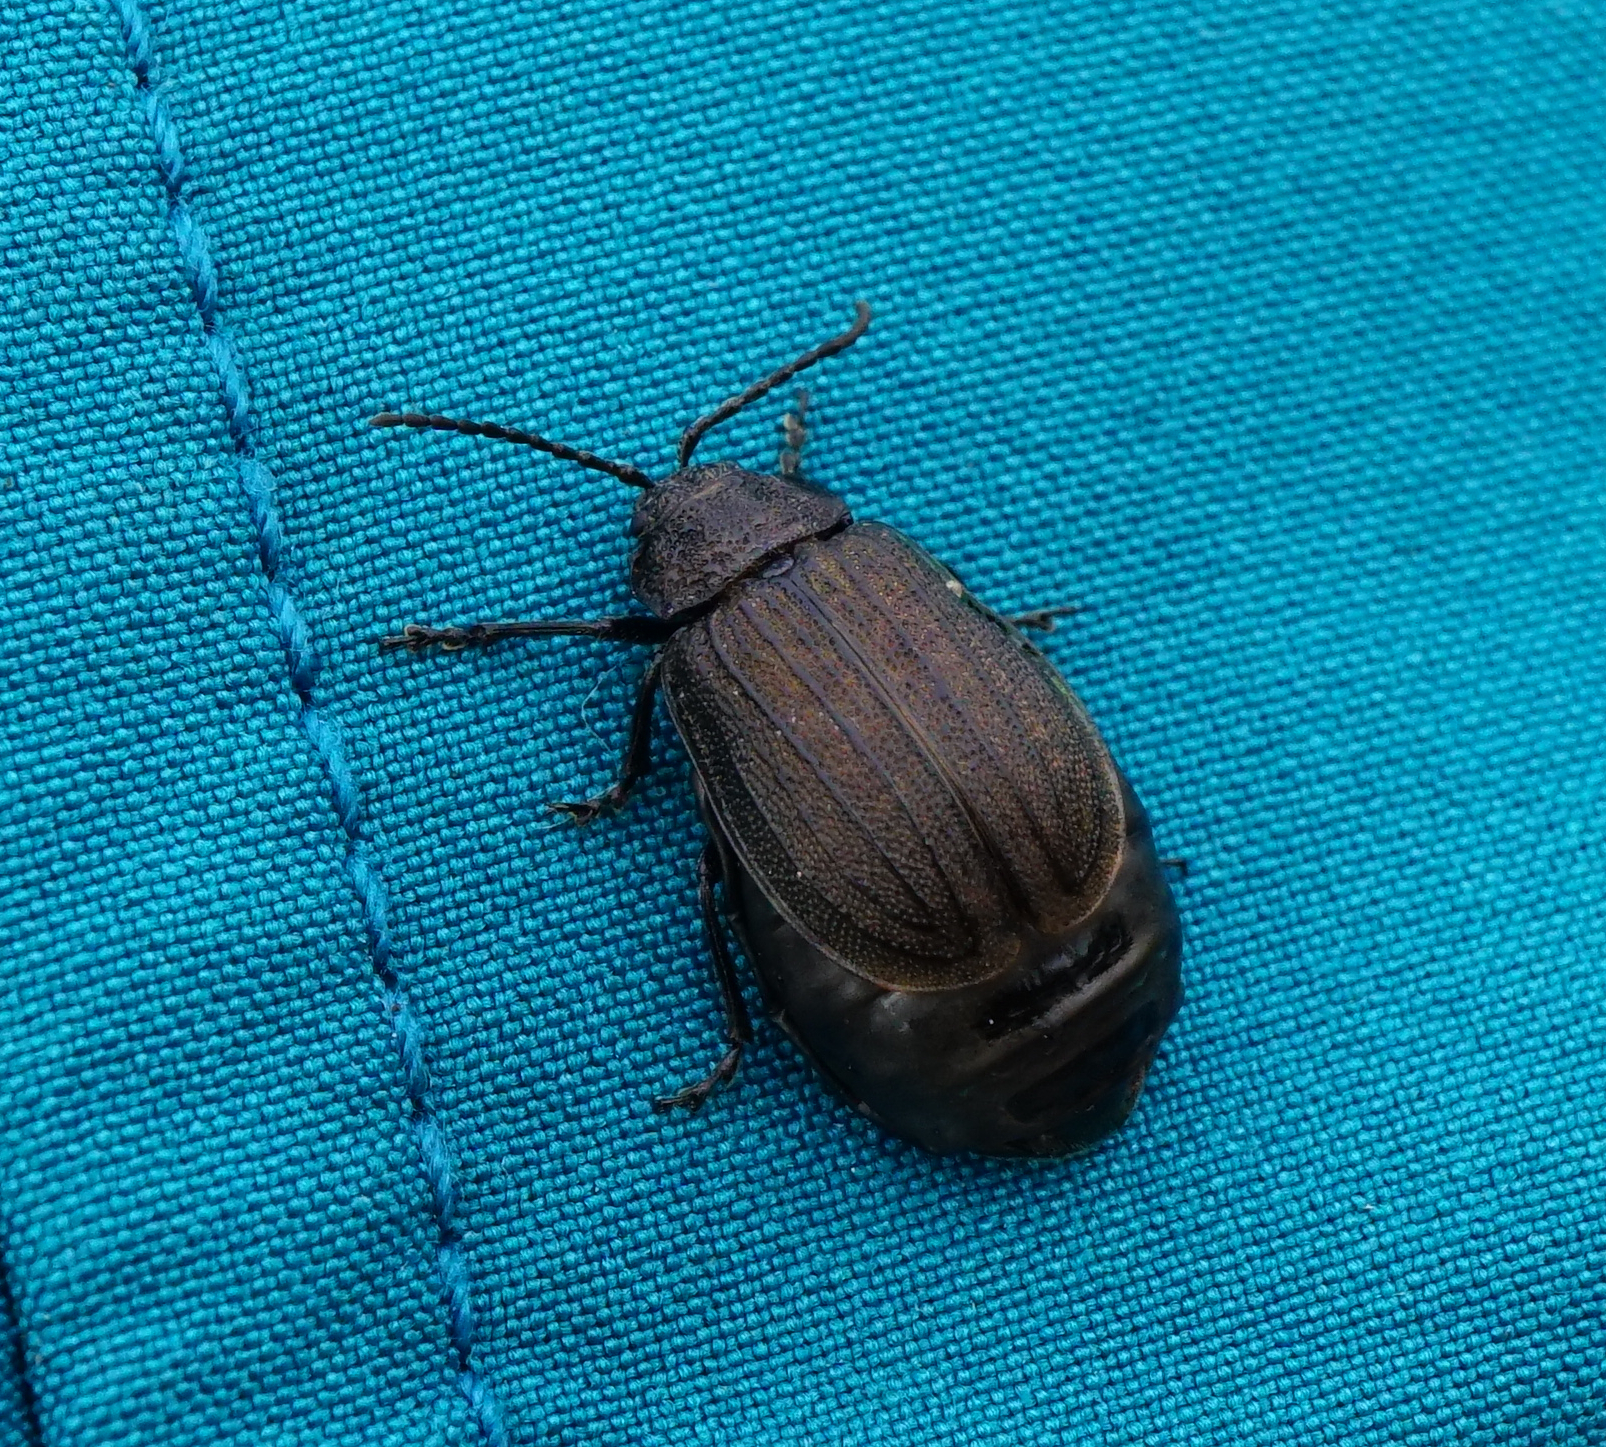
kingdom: Animalia
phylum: Arthropoda
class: Insecta
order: Coleoptera
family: Chrysomelidae
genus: Galeruca
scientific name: Galeruca pomonae
